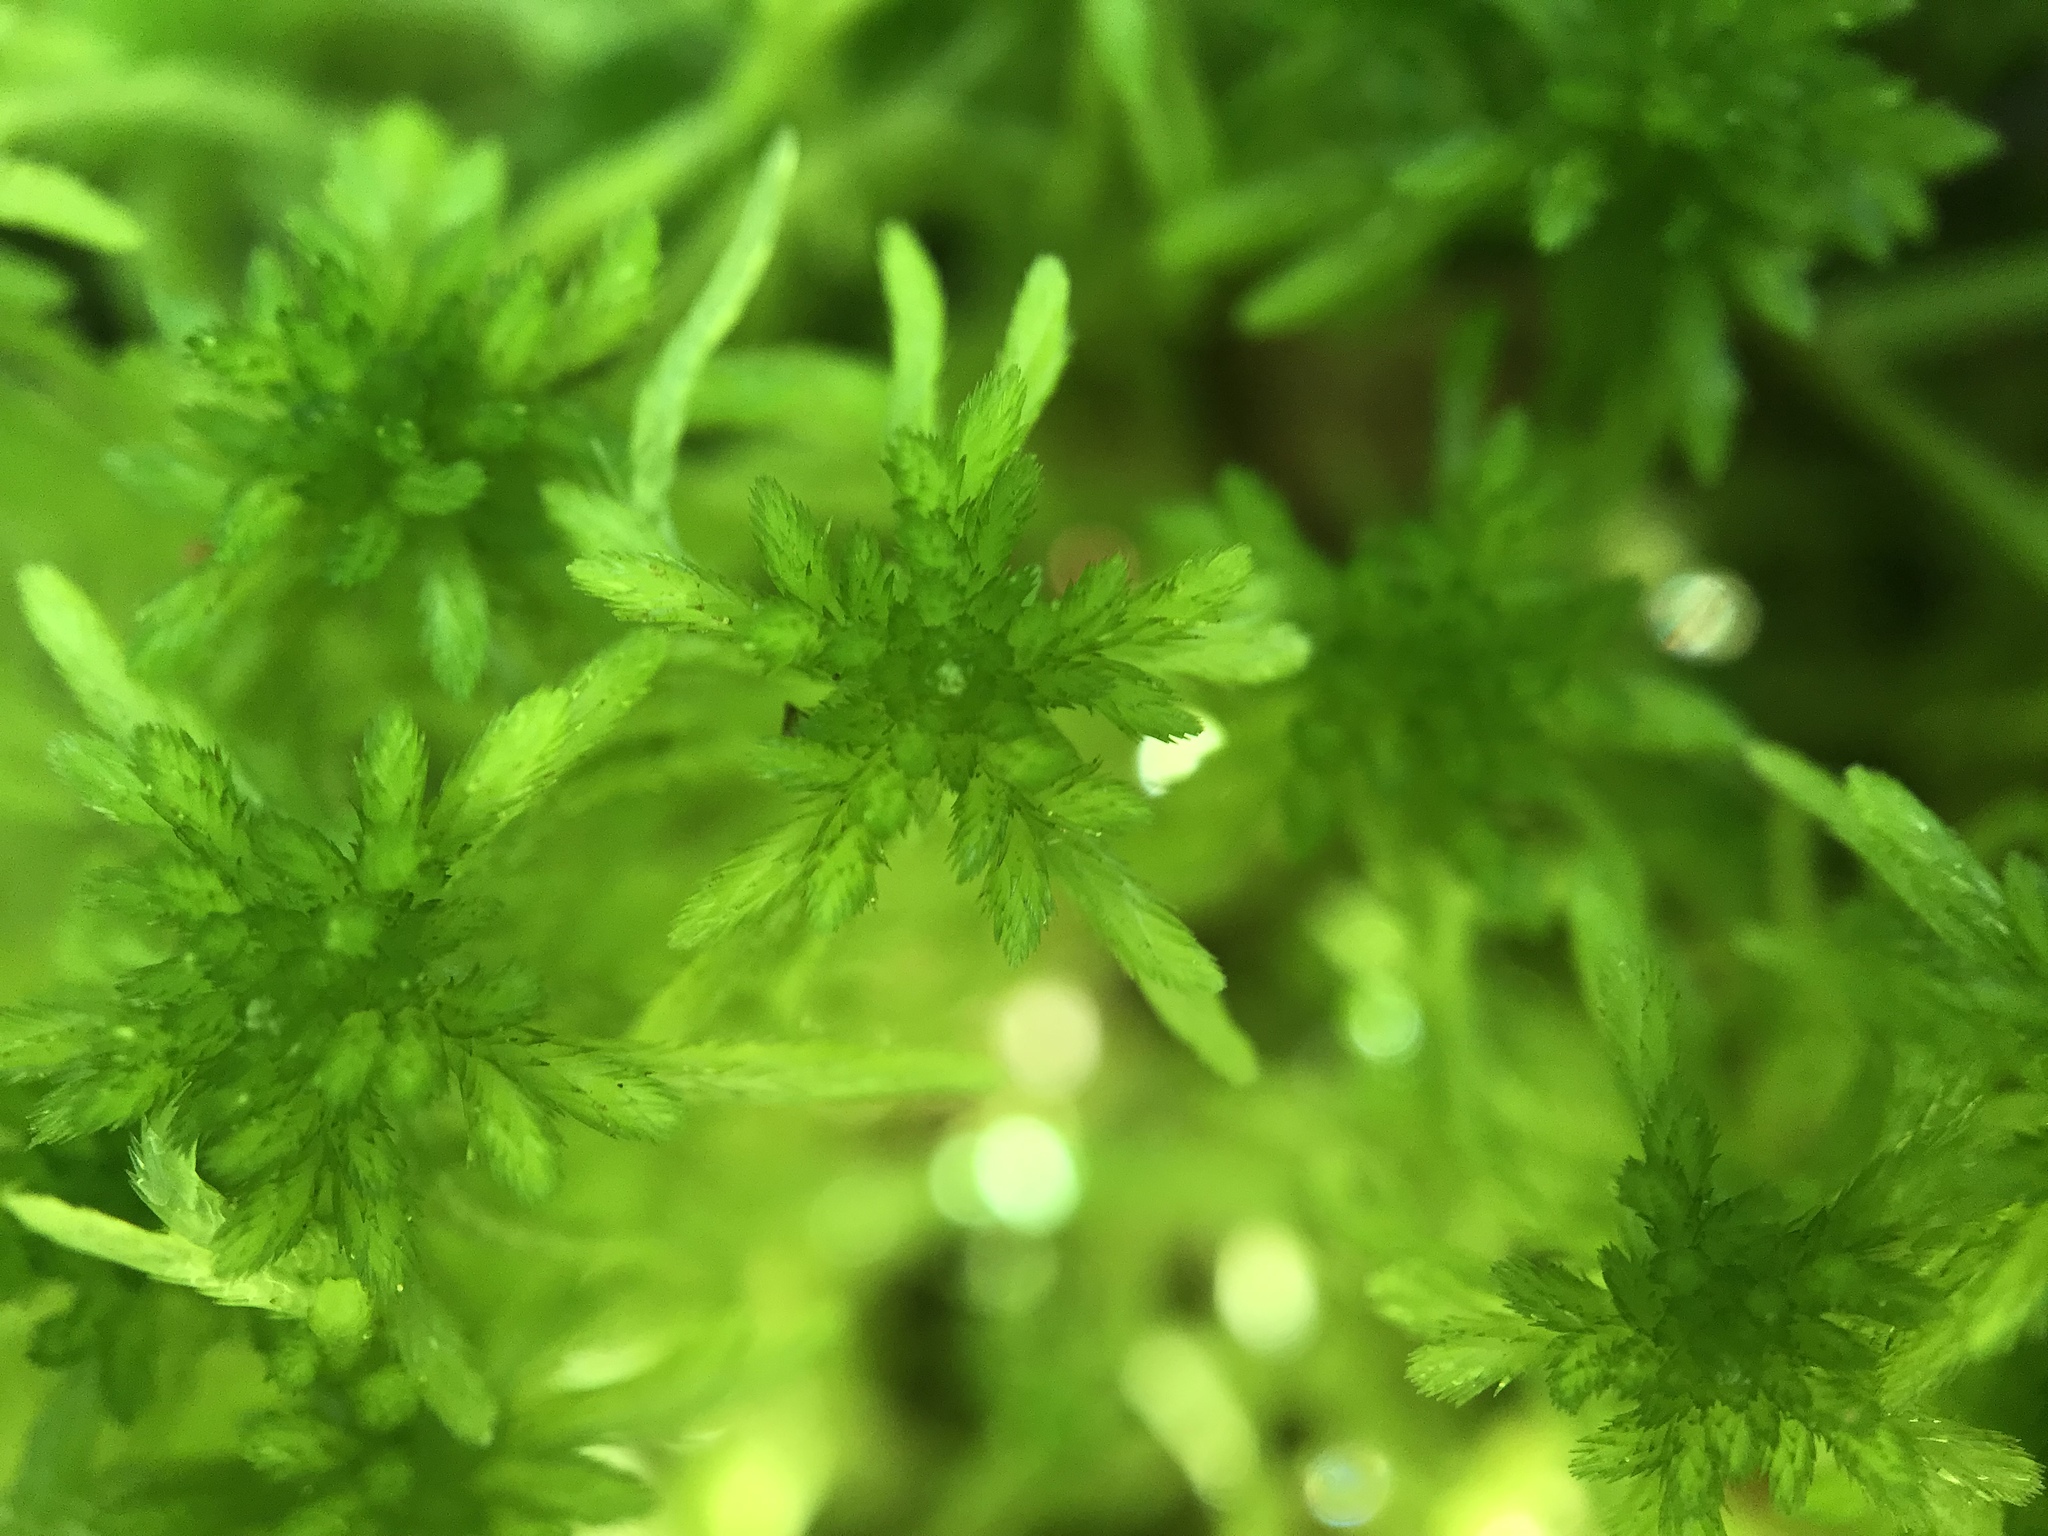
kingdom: Plantae
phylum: Bryophyta
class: Sphagnopsida
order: Sphagnales
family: Sphagnaceae
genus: Sphagnum
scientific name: Sphagnum girgensohnii
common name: Girgensohn's peat moss
